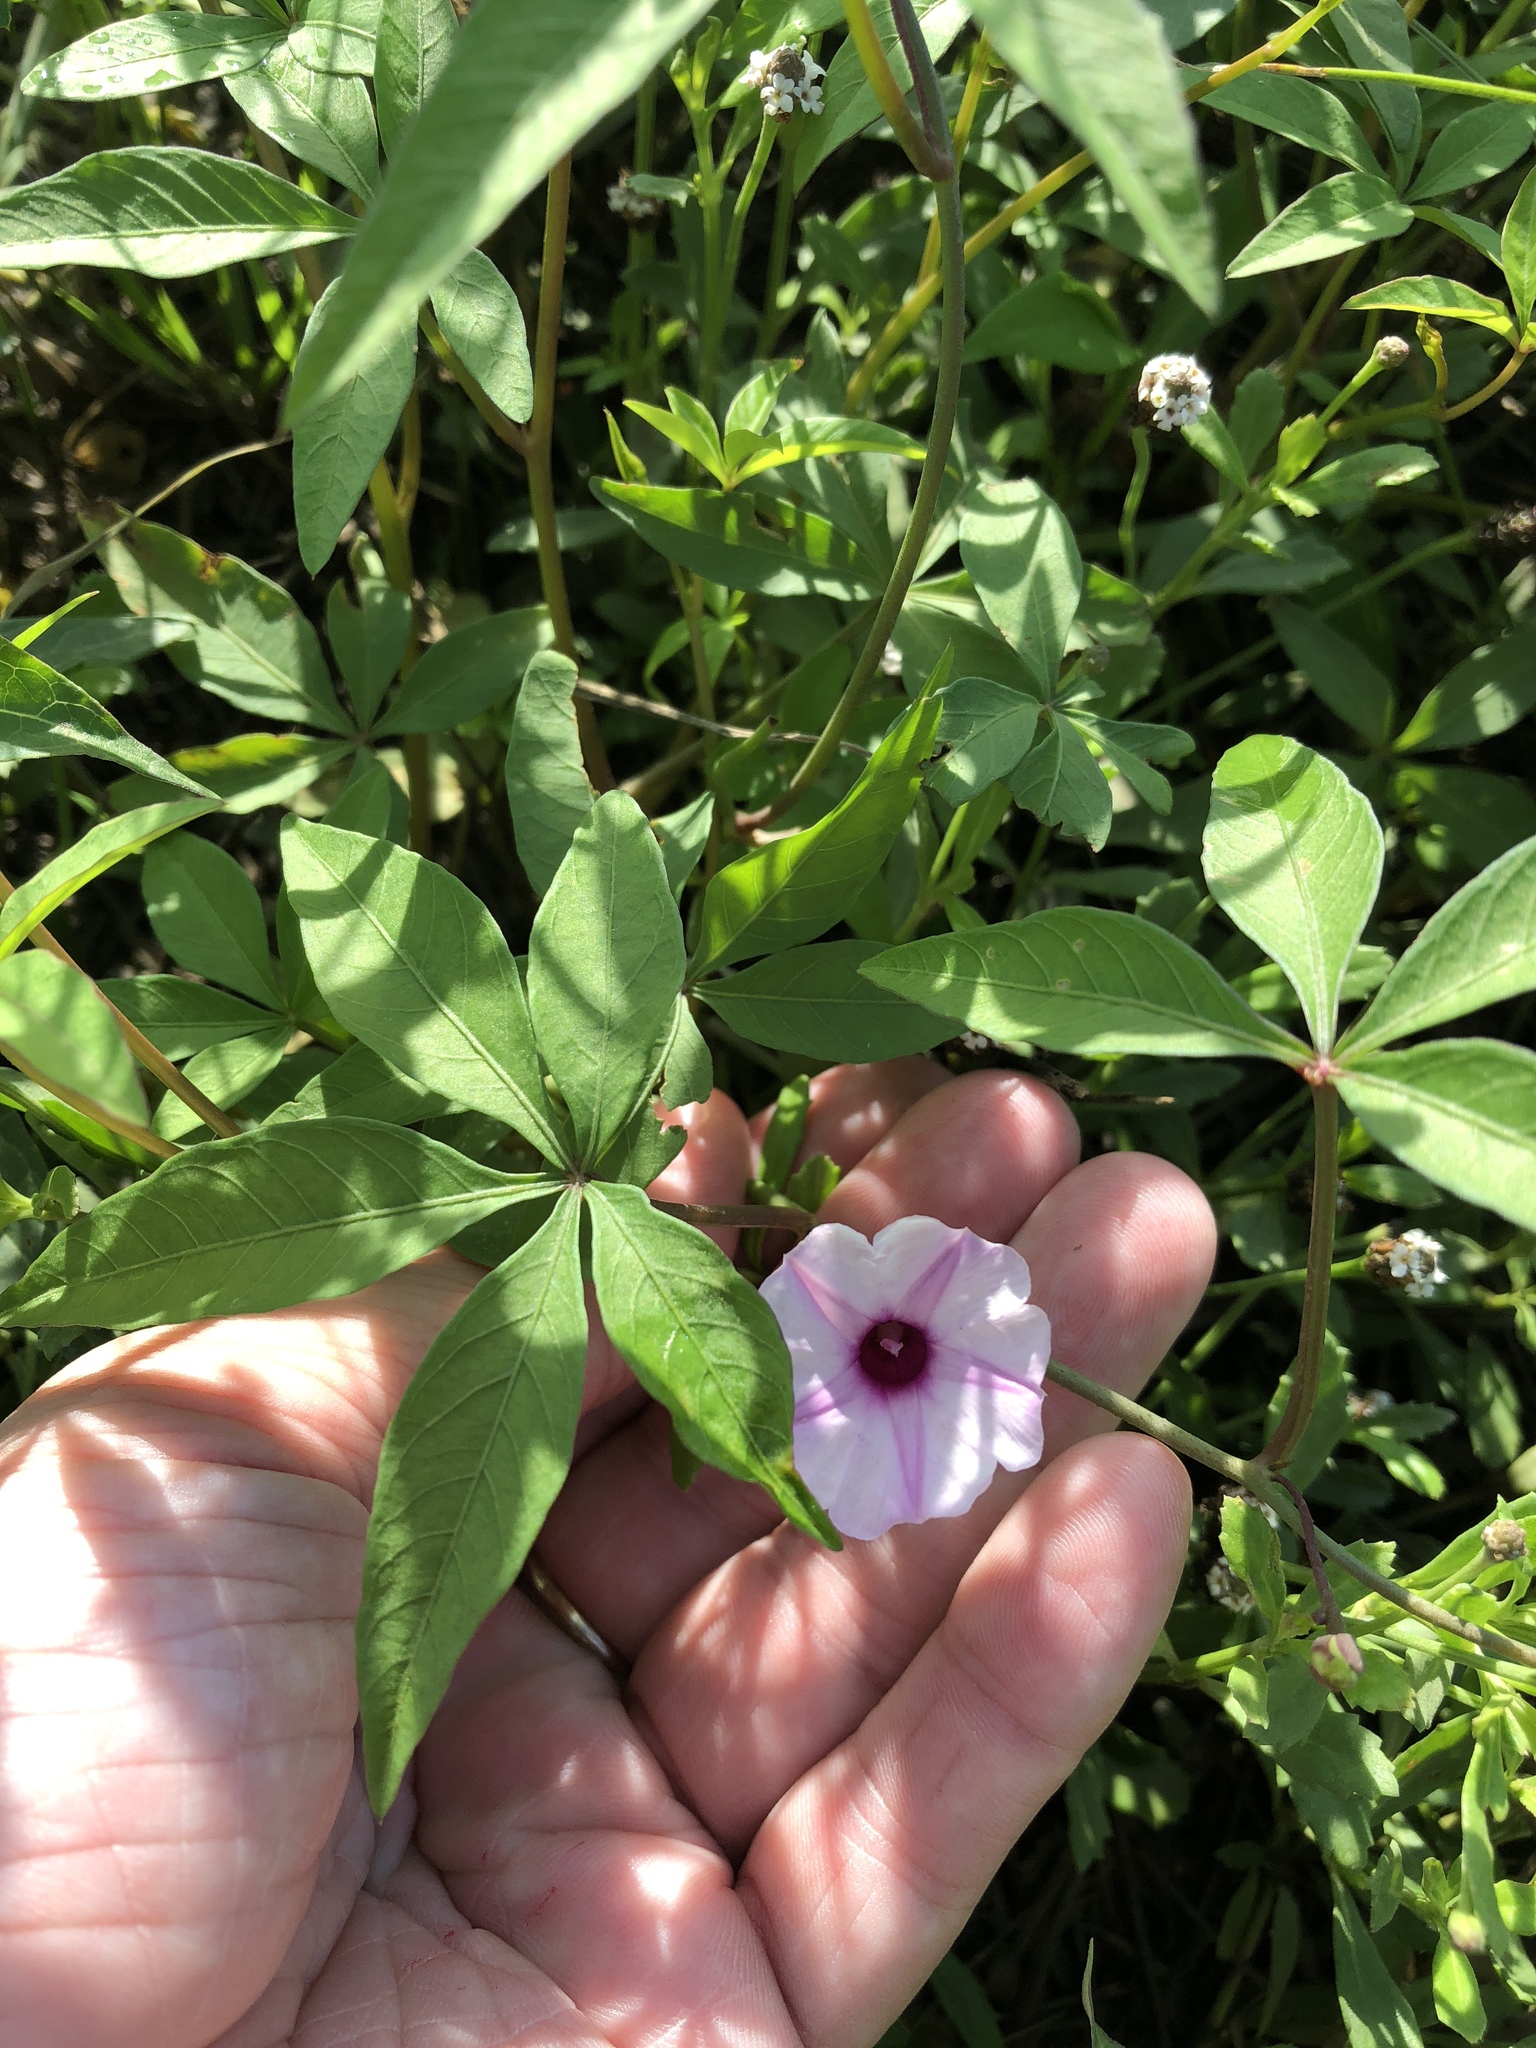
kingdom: Plantae
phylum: Tracheophyta
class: Magnoliopsida
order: Solanales
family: Convolvulaceae
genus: Ipomoea
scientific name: Ipomoea heptaphylla
